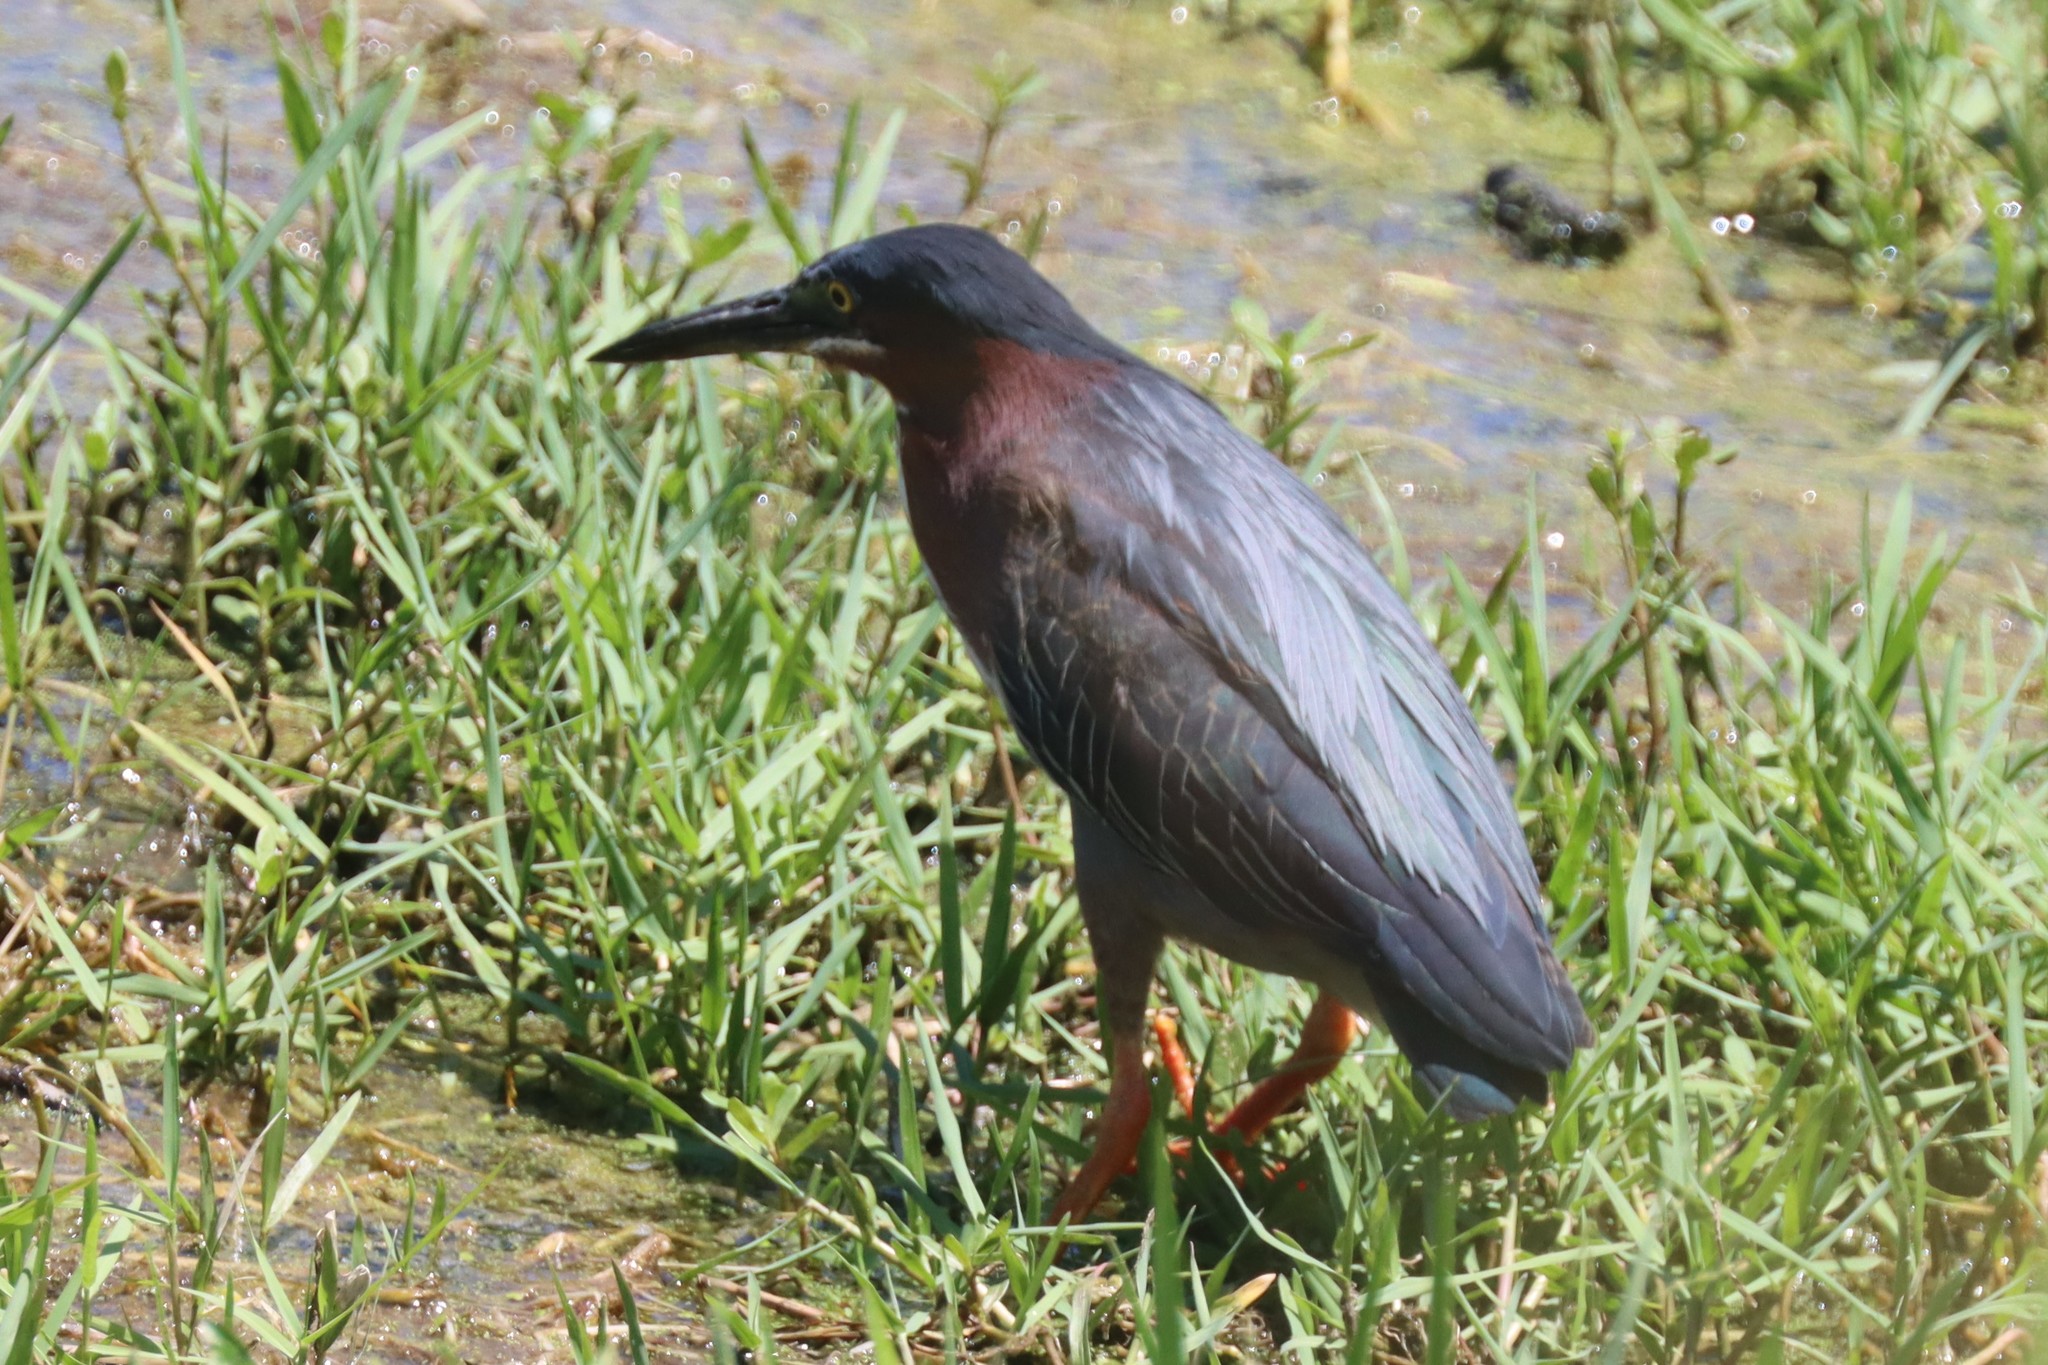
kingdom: Animalia
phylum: Chordata
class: Aves
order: Pelecaniformes
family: Ardeidae
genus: Butorides
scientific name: Butorides virescens
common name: Green heron
